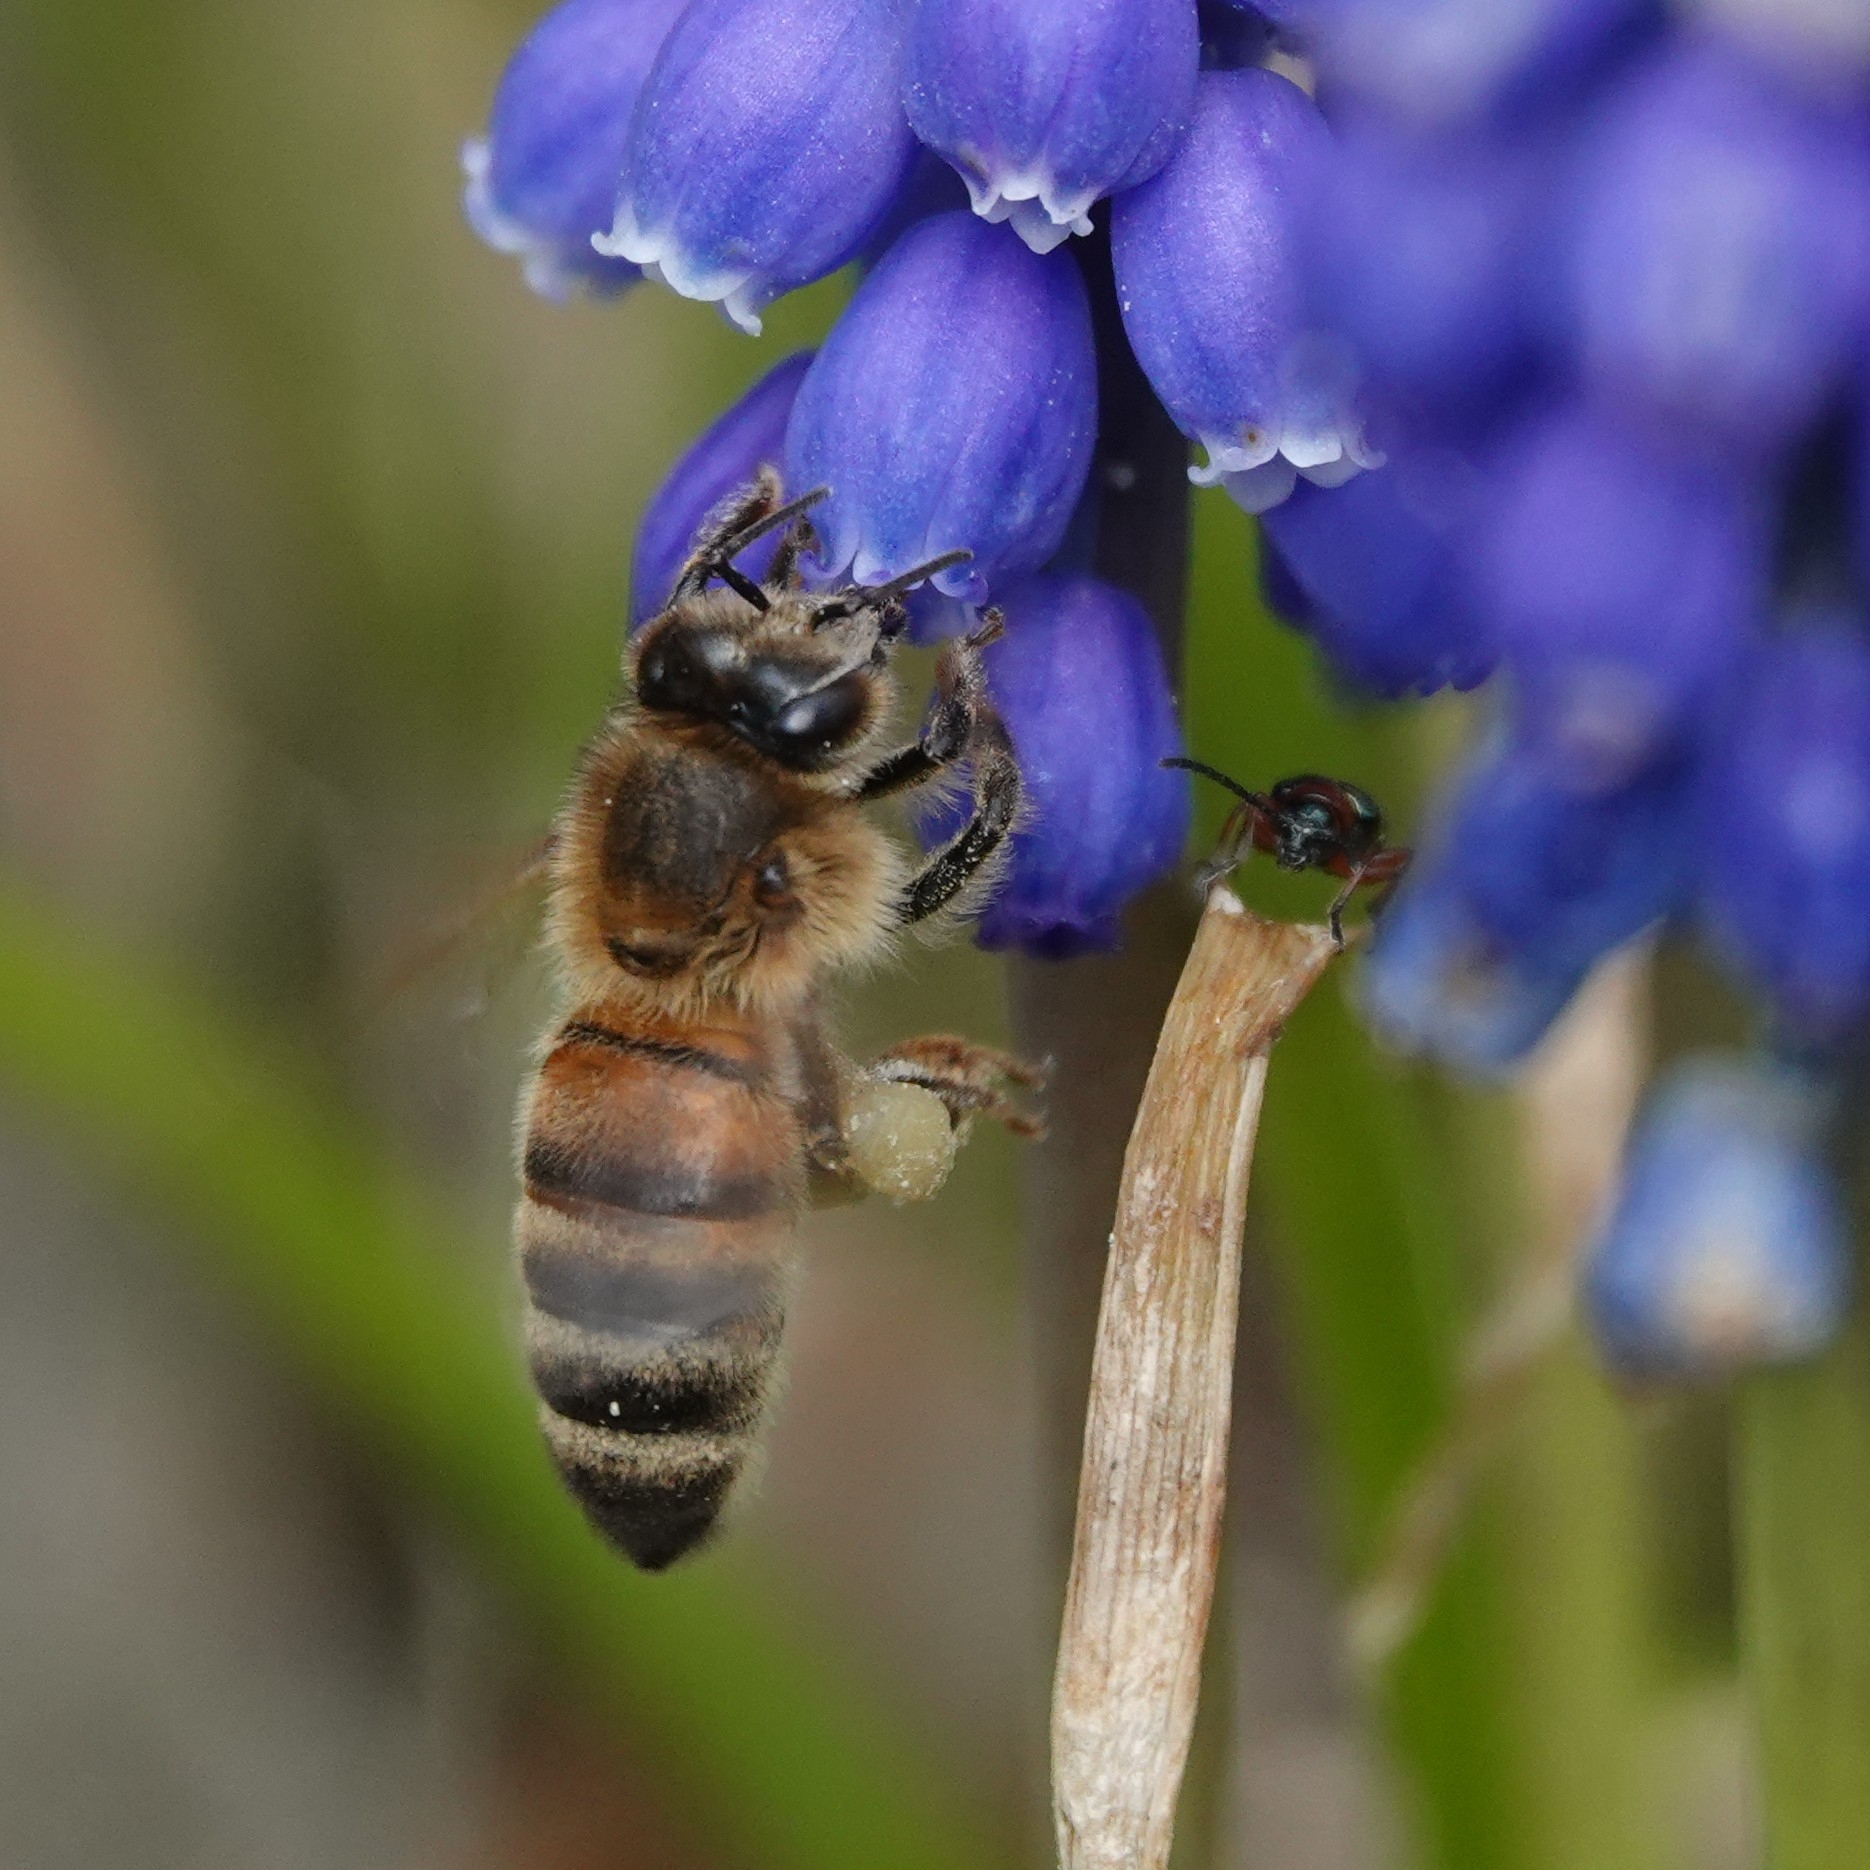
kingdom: Animalia
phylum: Arthropoda
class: Insecta
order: Hymenoptera
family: Apidae
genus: Apis
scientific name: Apis mellifera
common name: Honey bee
